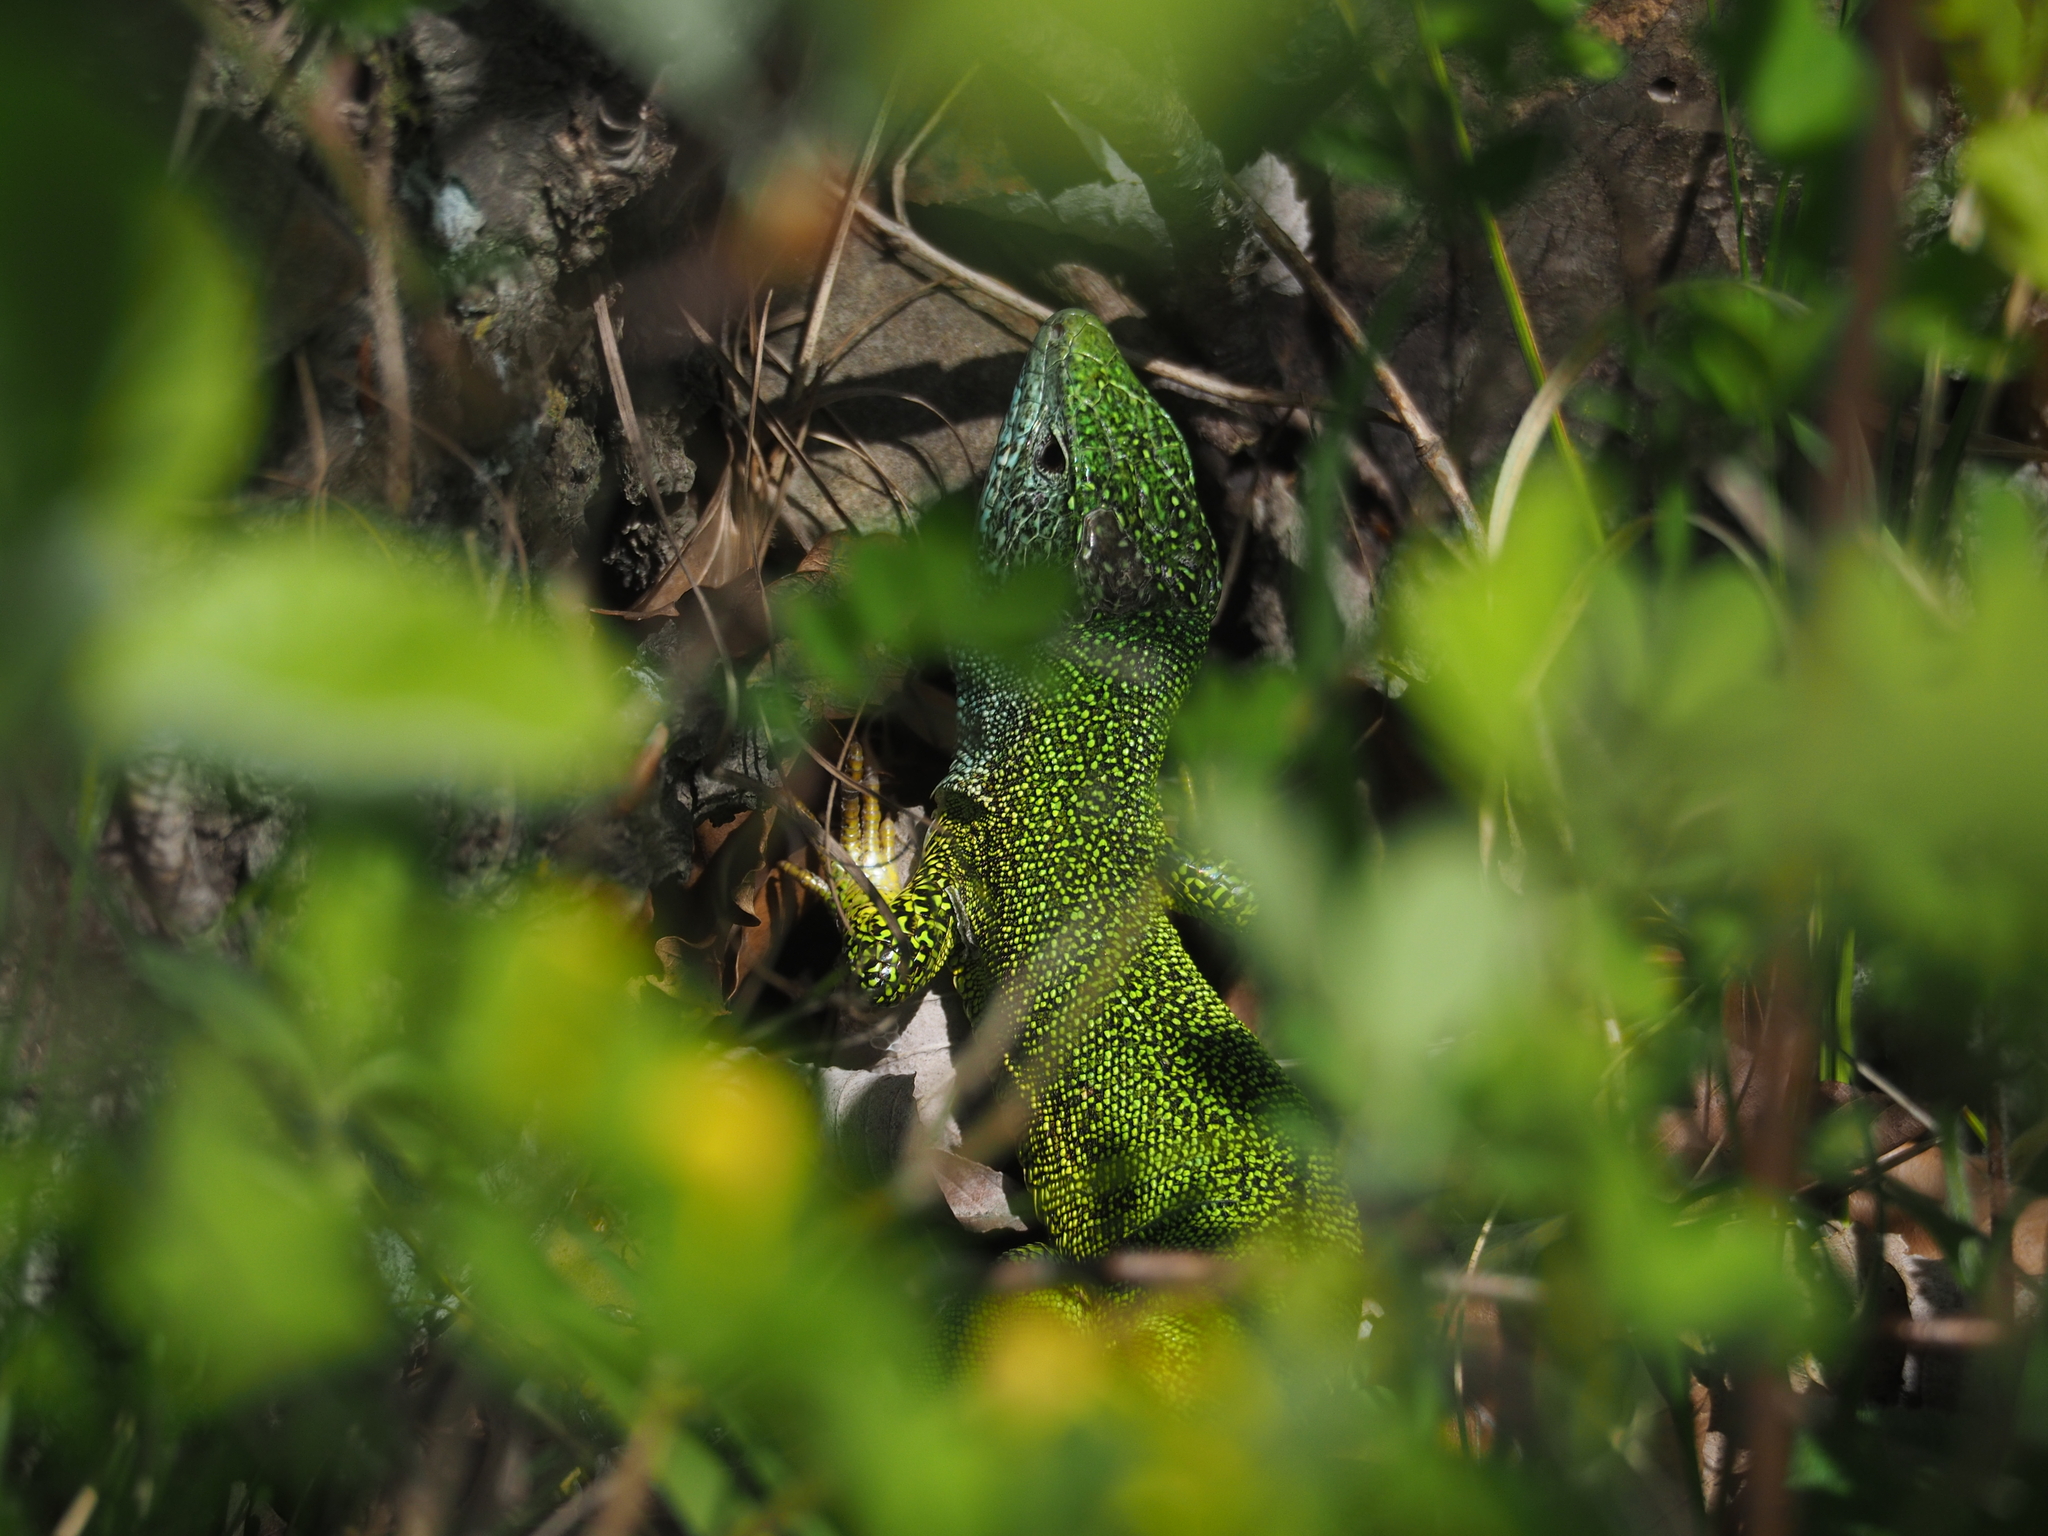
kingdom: Animalia
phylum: Chordata
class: Squamata
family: Lacertidae
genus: Lacerta
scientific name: Lacerta viridis
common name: European green lizard
